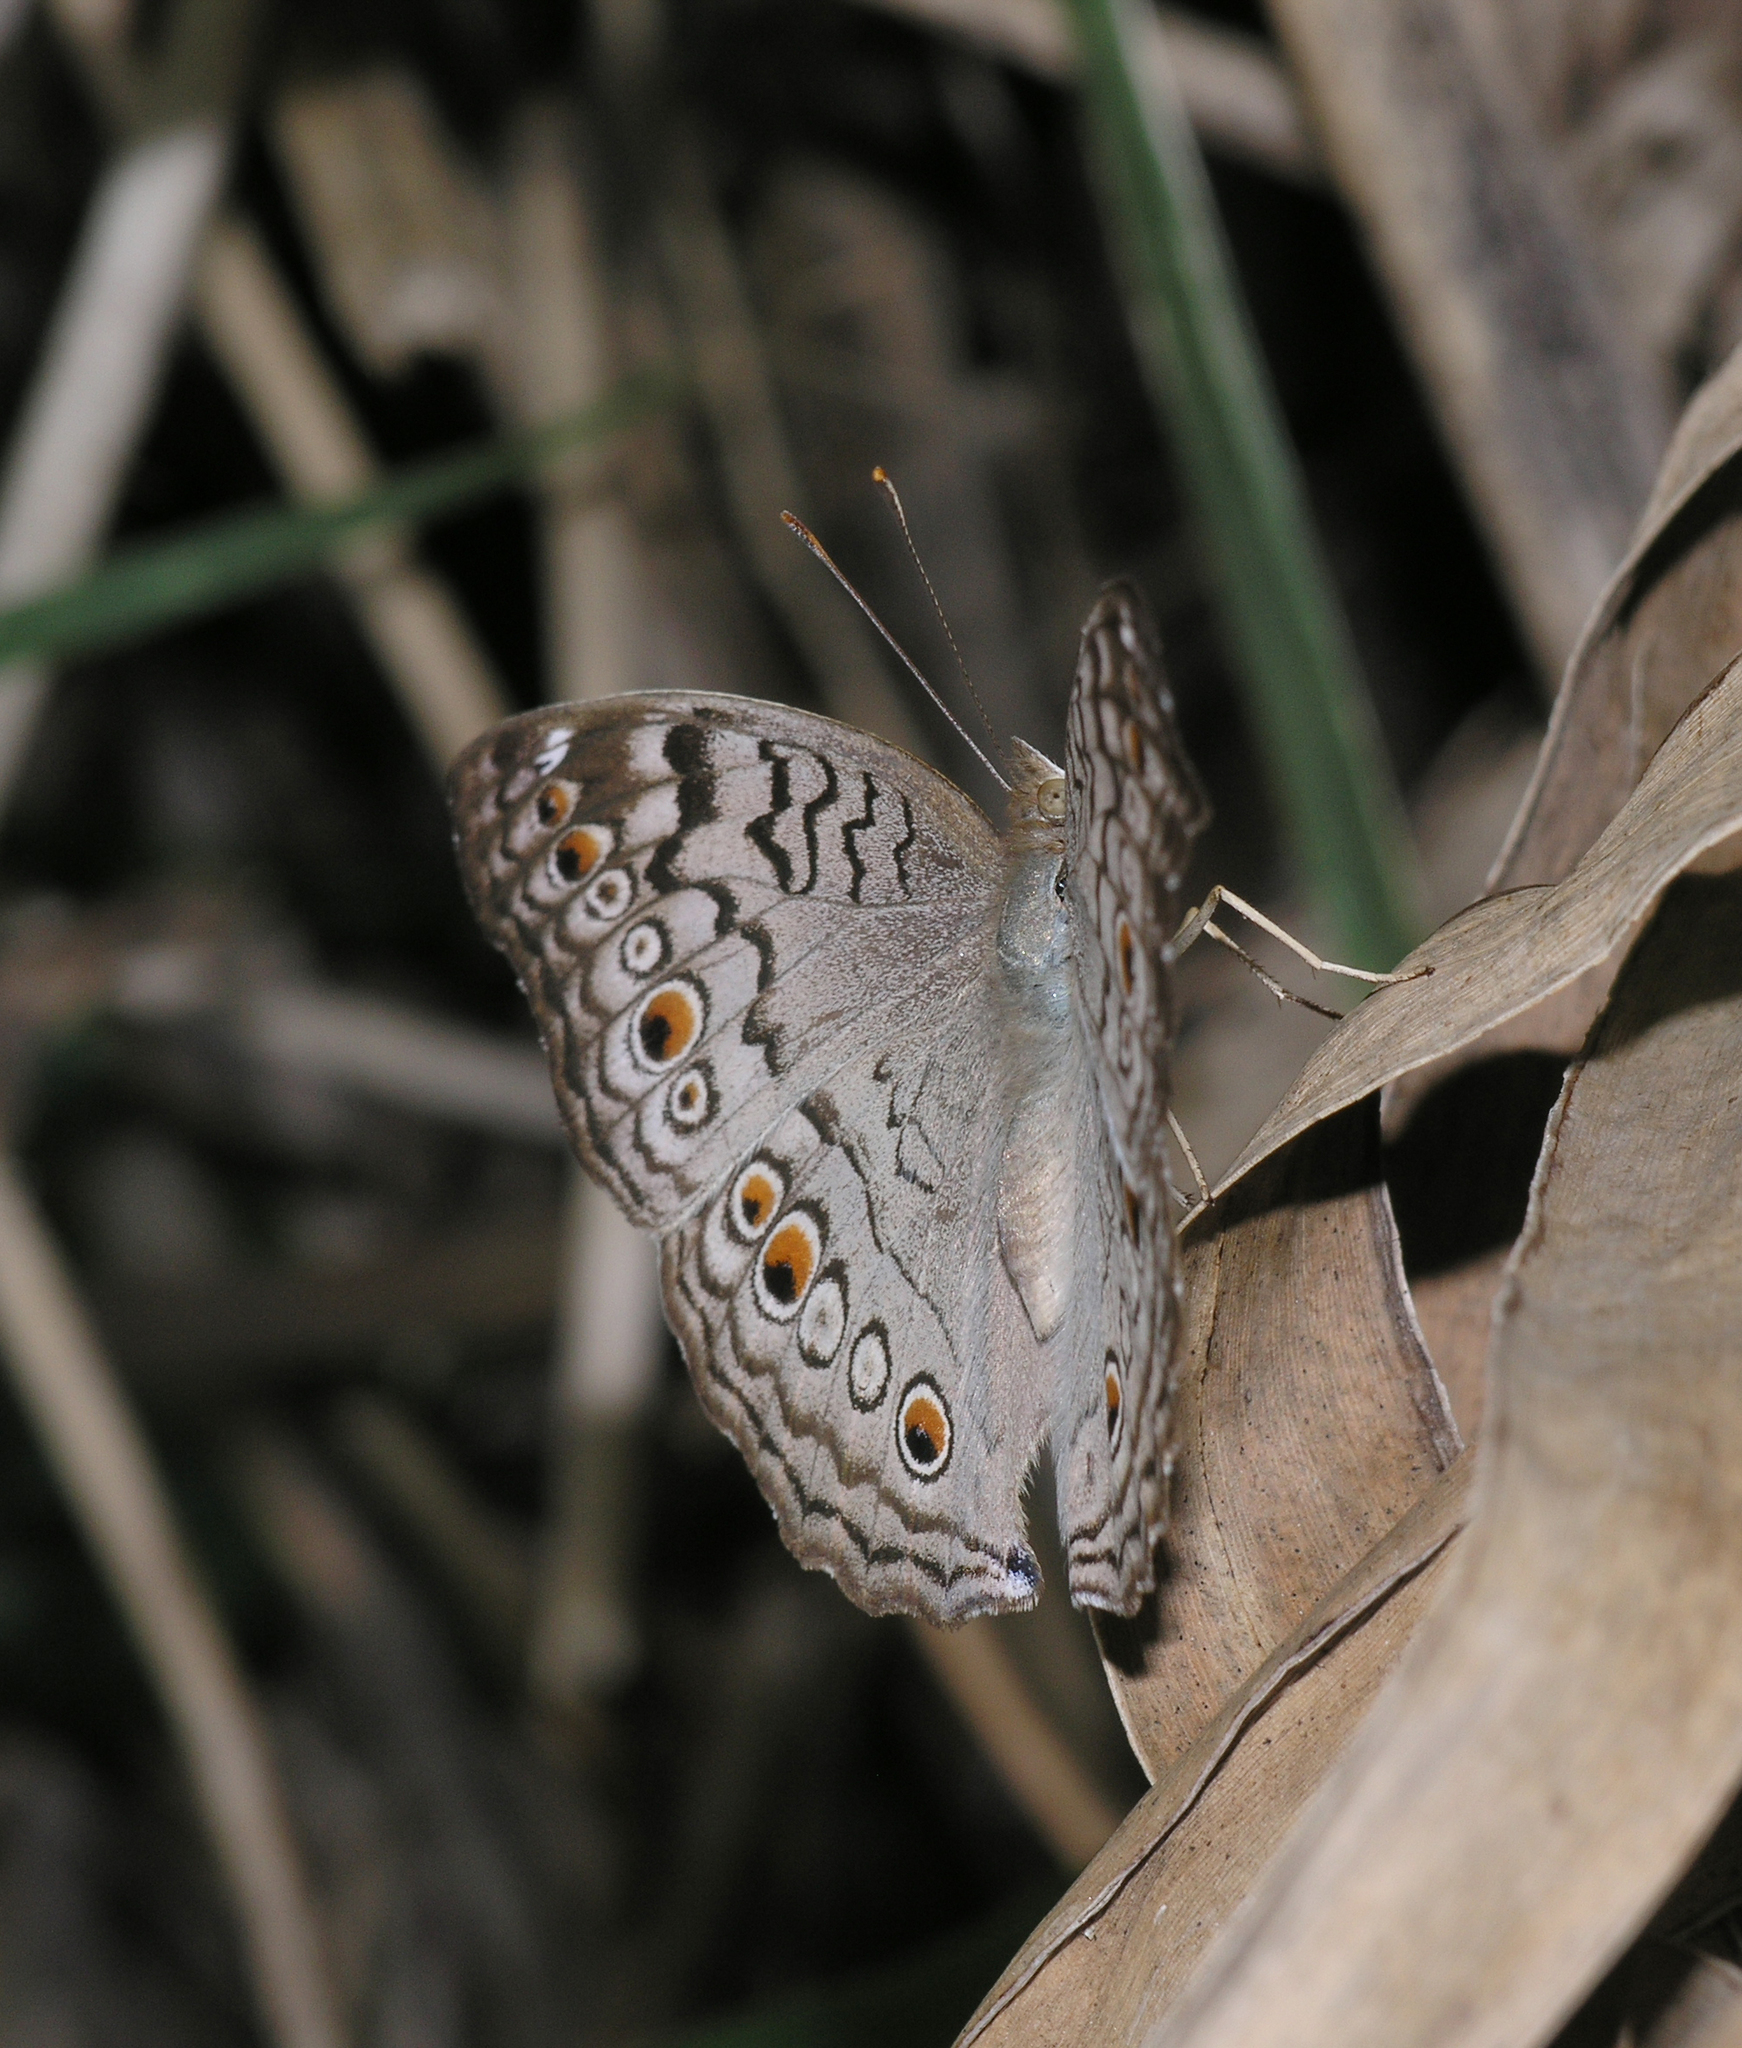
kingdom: Animalia
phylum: Arthropoda
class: Insecta
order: Lepidoptera
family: Nymphalidae
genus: Junonia
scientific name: Junonia atlites
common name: Grey pansy
